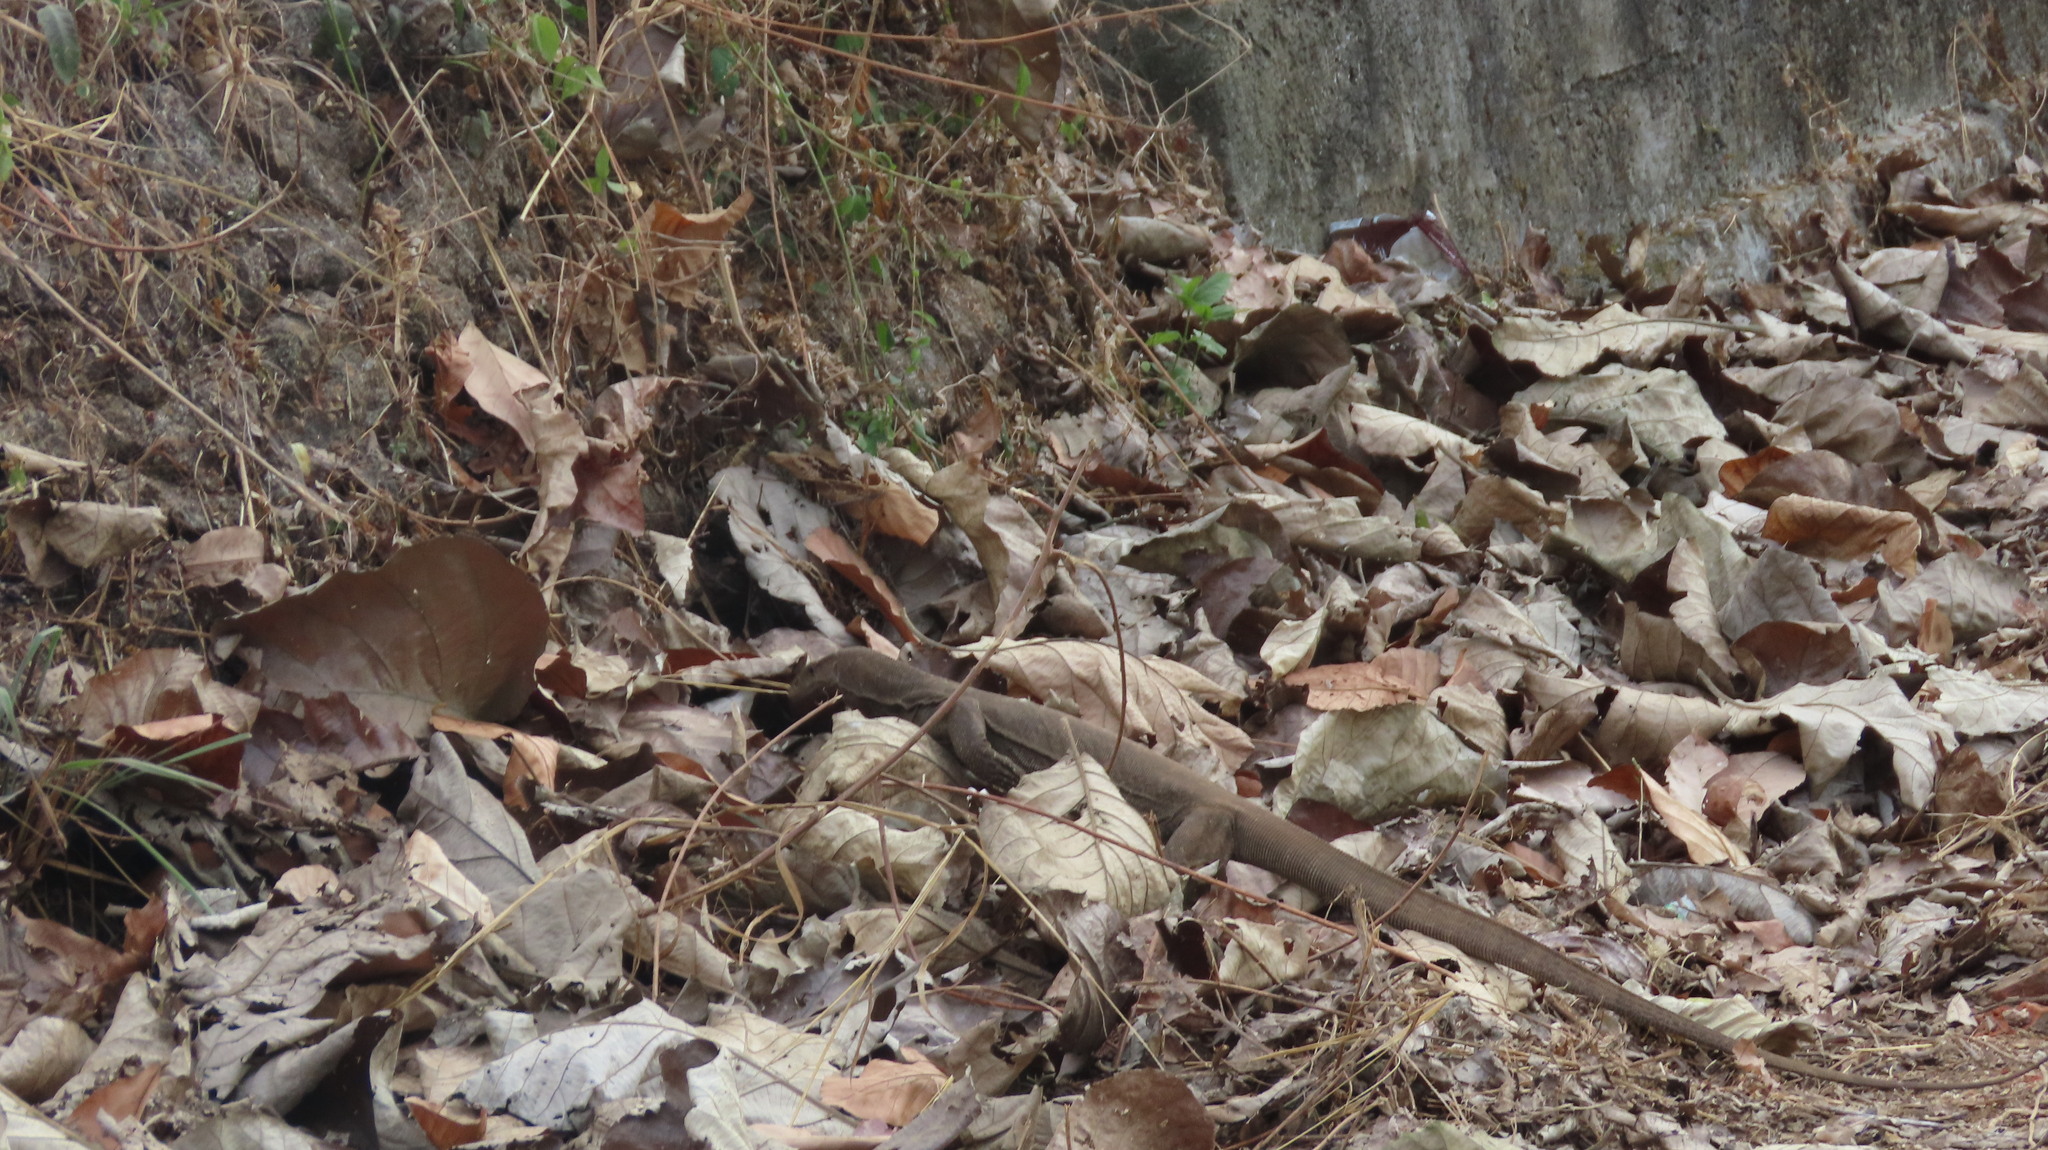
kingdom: Animalia
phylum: Chordata
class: Squamata
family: Varanidae
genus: Varanus
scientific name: Varanus bengalensis
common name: Bengal monitor
